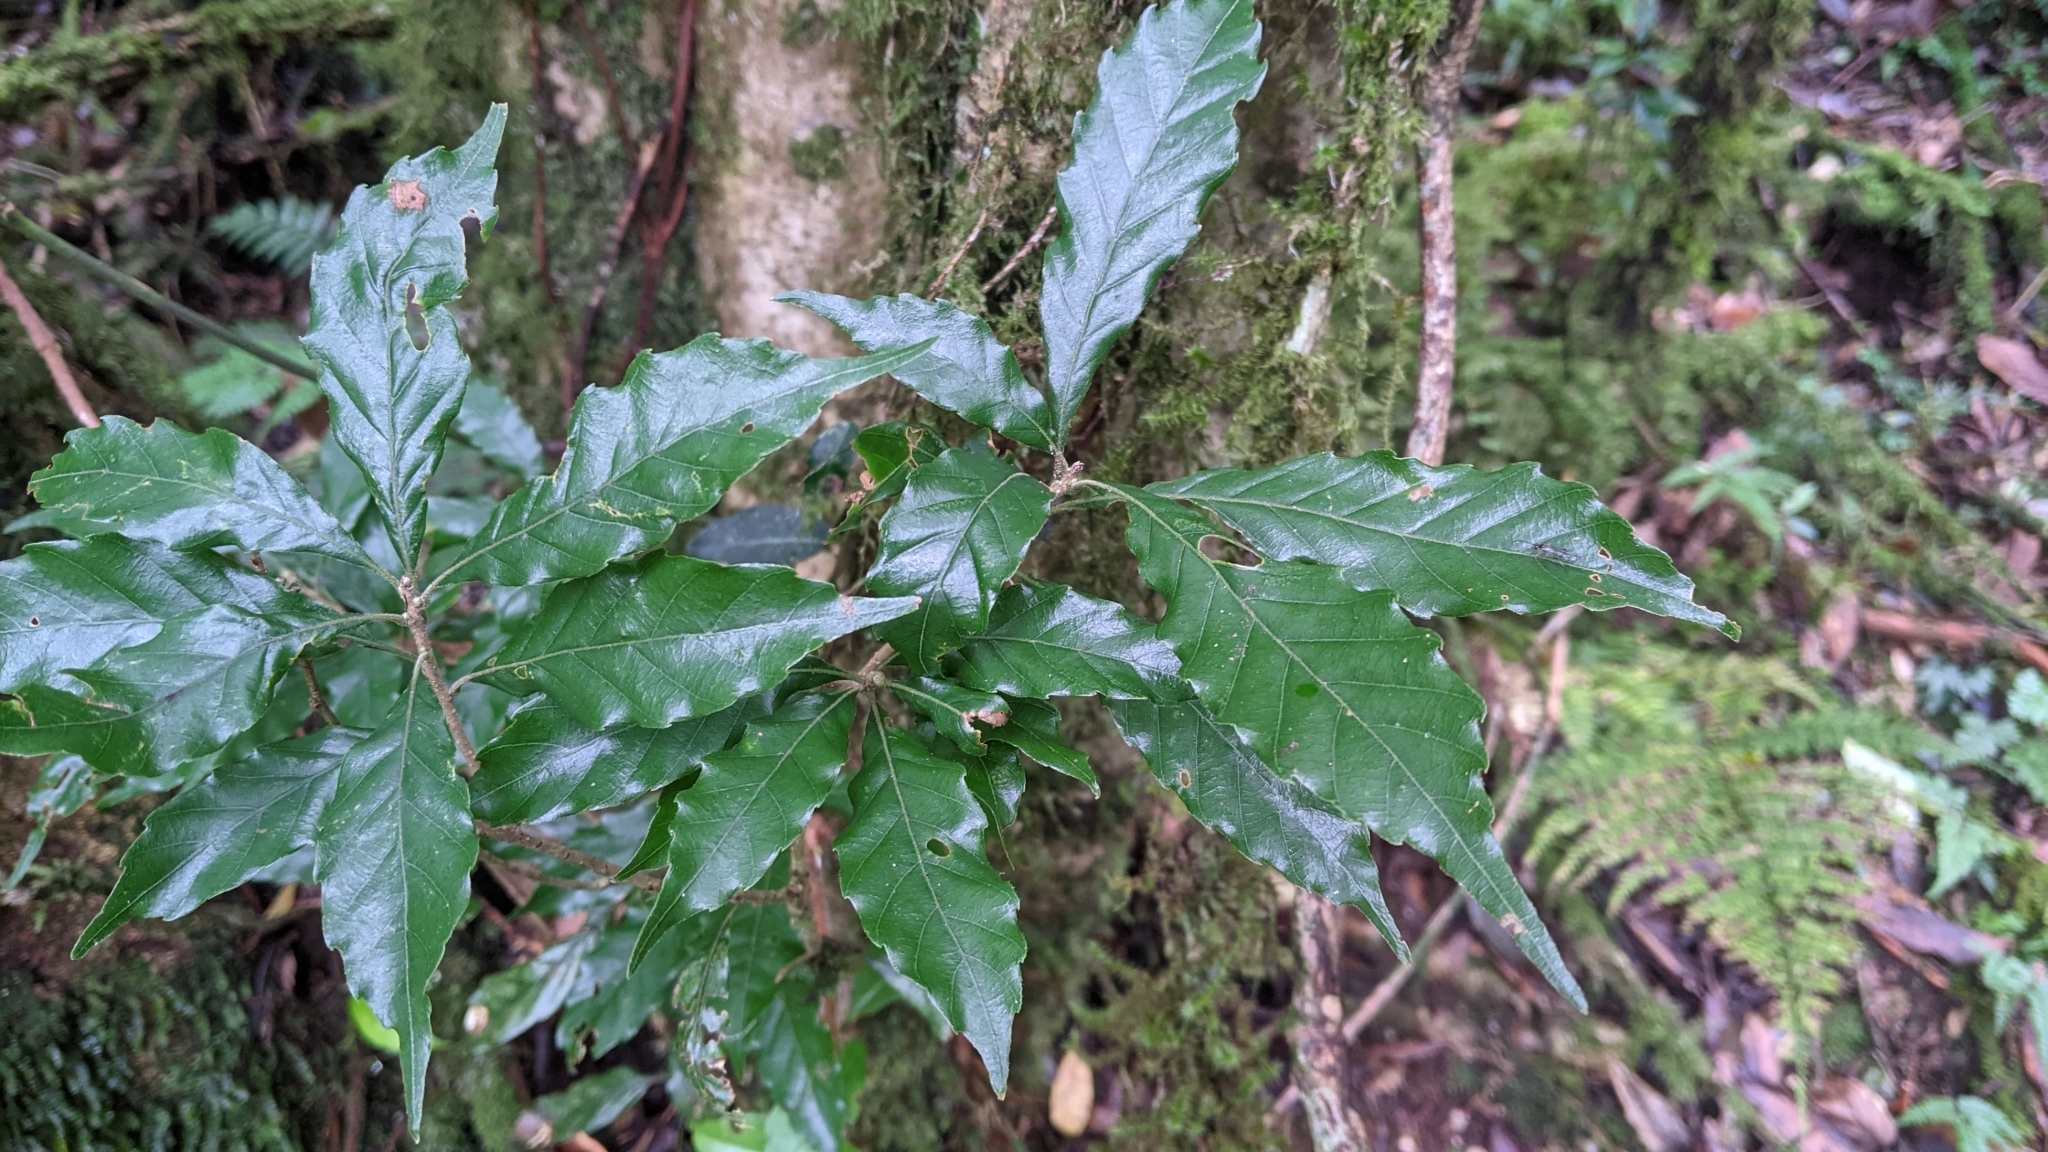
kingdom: Plantae
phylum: Tracheophyta
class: Magnoliopsida
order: Fagales
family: Fagaceae
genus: Lithocarpus
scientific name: Lithocarpus corneus
